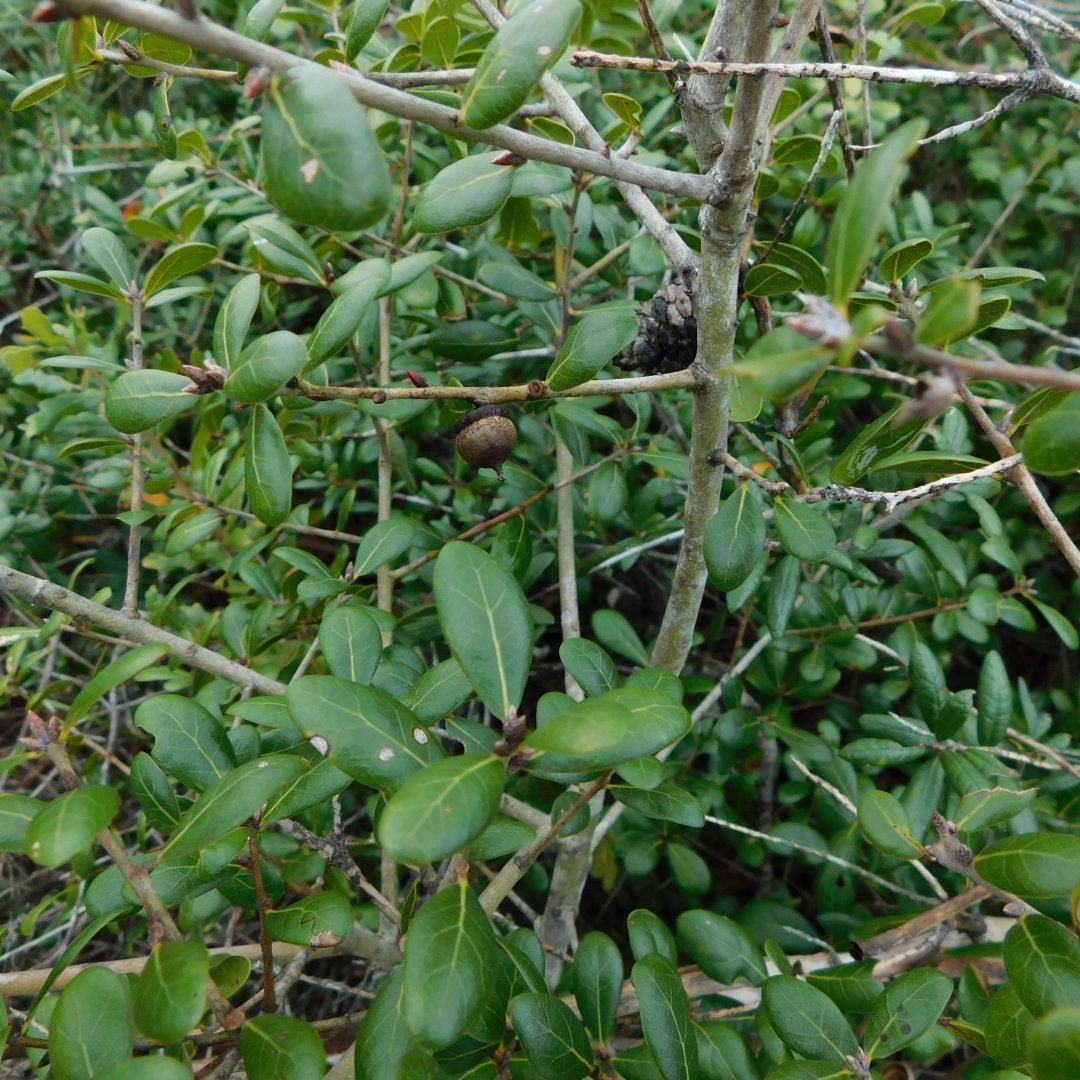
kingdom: Plantae
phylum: Tracheophyta
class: Magnoliopsida
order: Fagales
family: Fagaceae
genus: Quercus
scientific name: Quercus myrtifolia
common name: Myrtle oak
